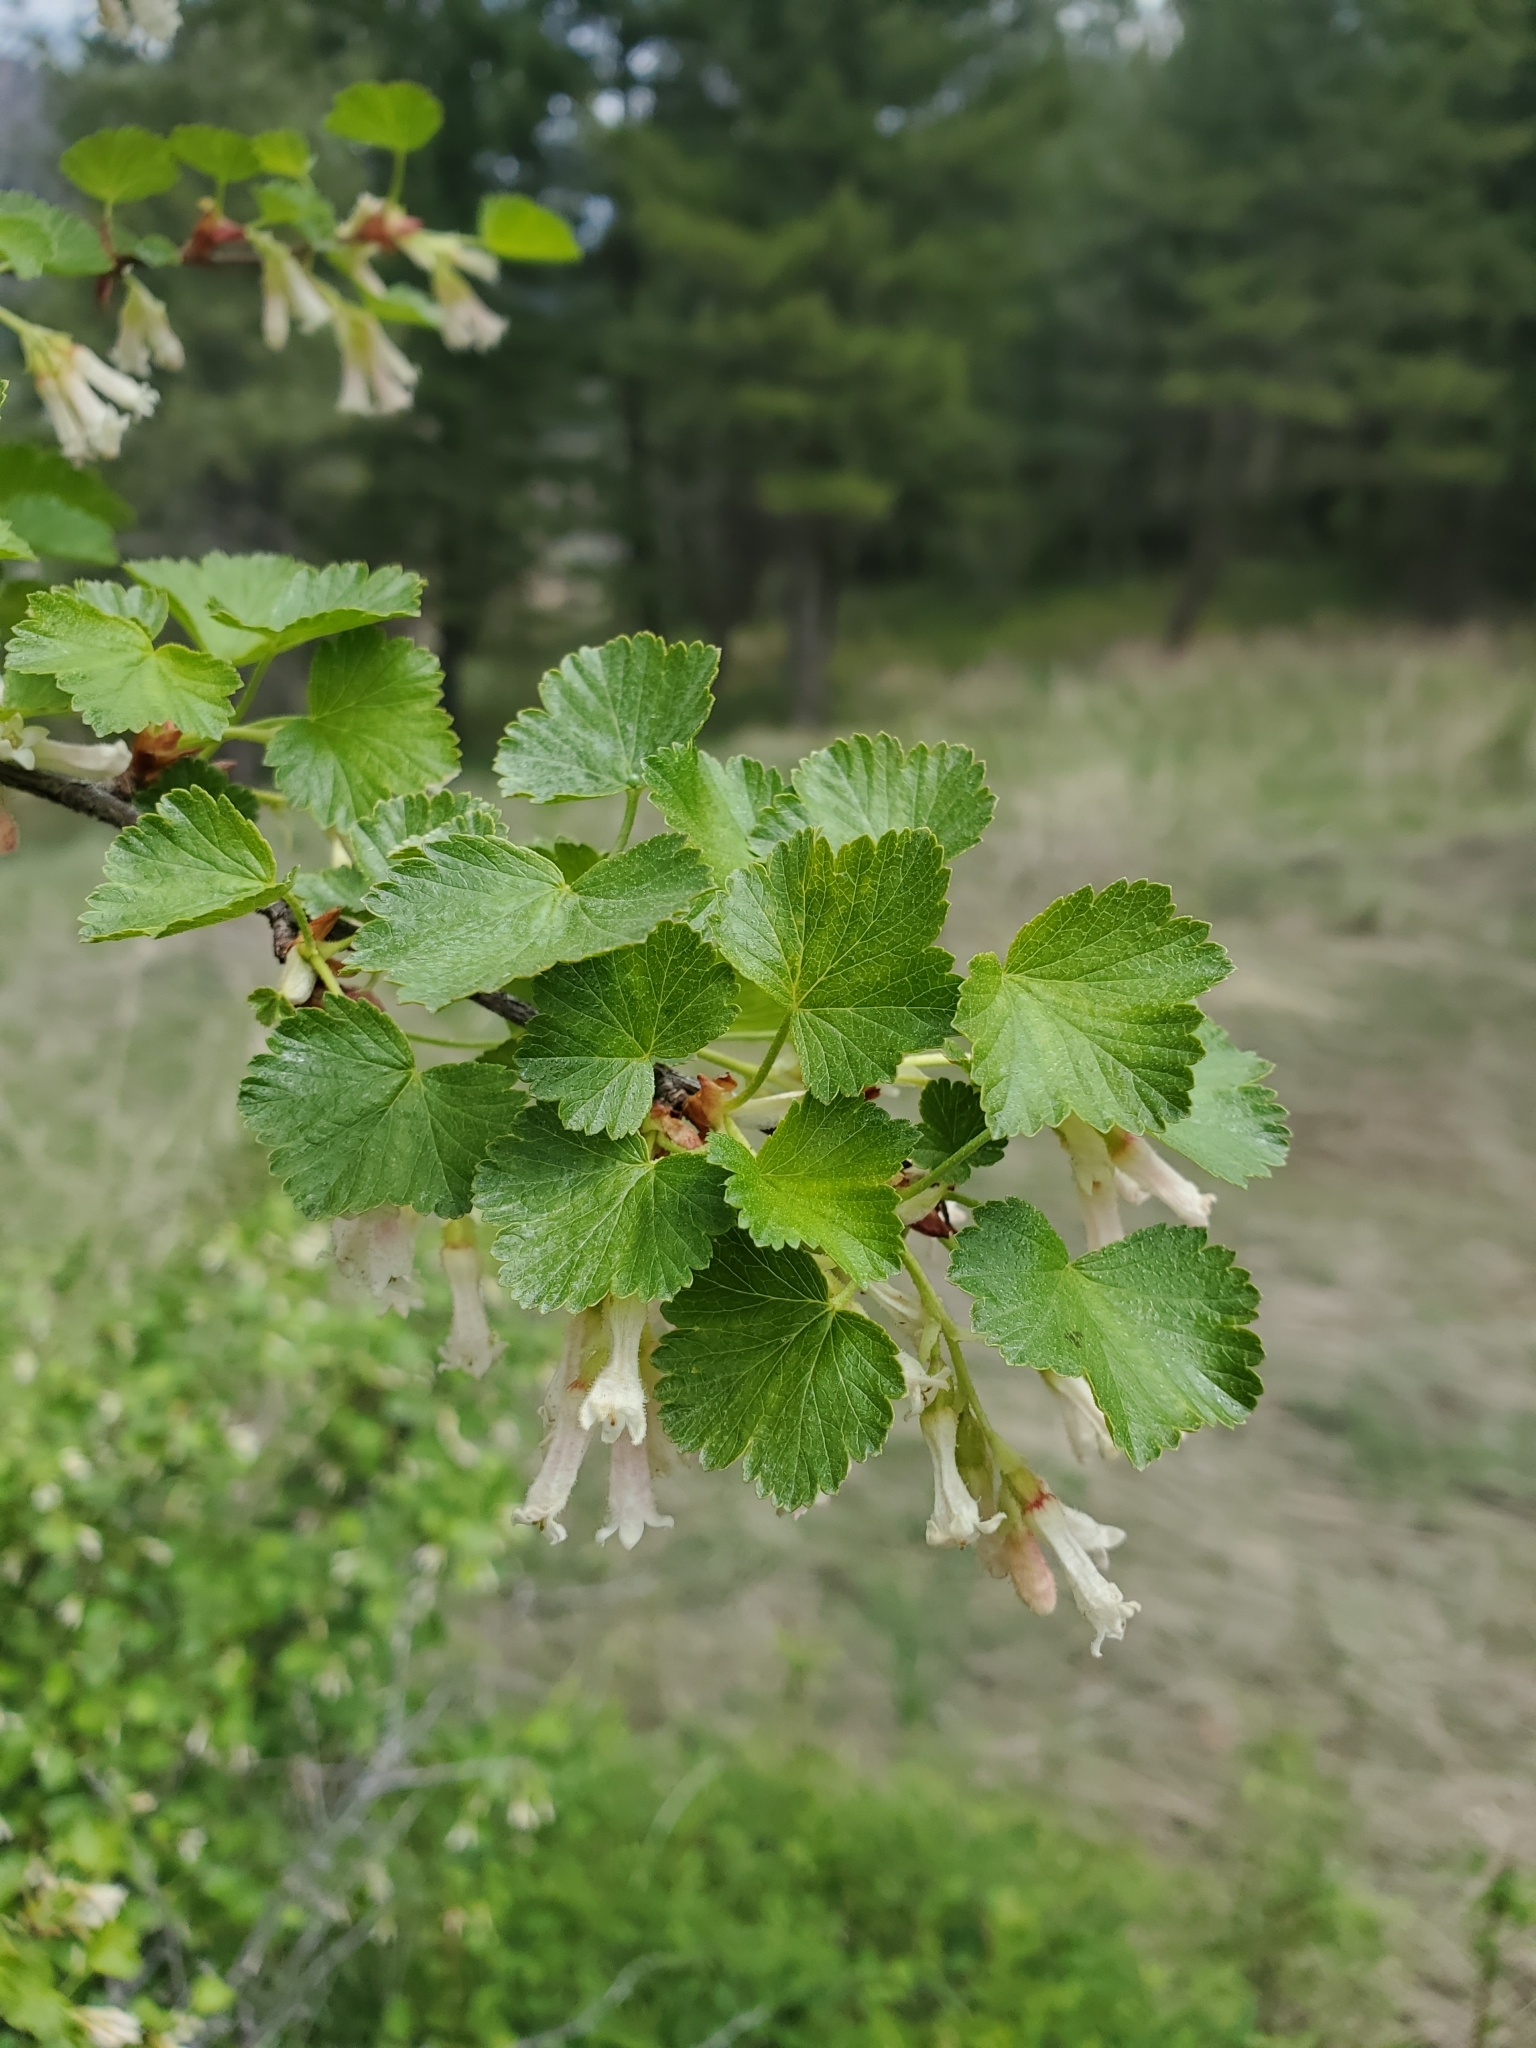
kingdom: Plantae
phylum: Tracheophyta
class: Magnoliopsida
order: Saxifragales
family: Grossulariaceae
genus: Ribes
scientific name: Ribes cereum
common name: Wax currant
